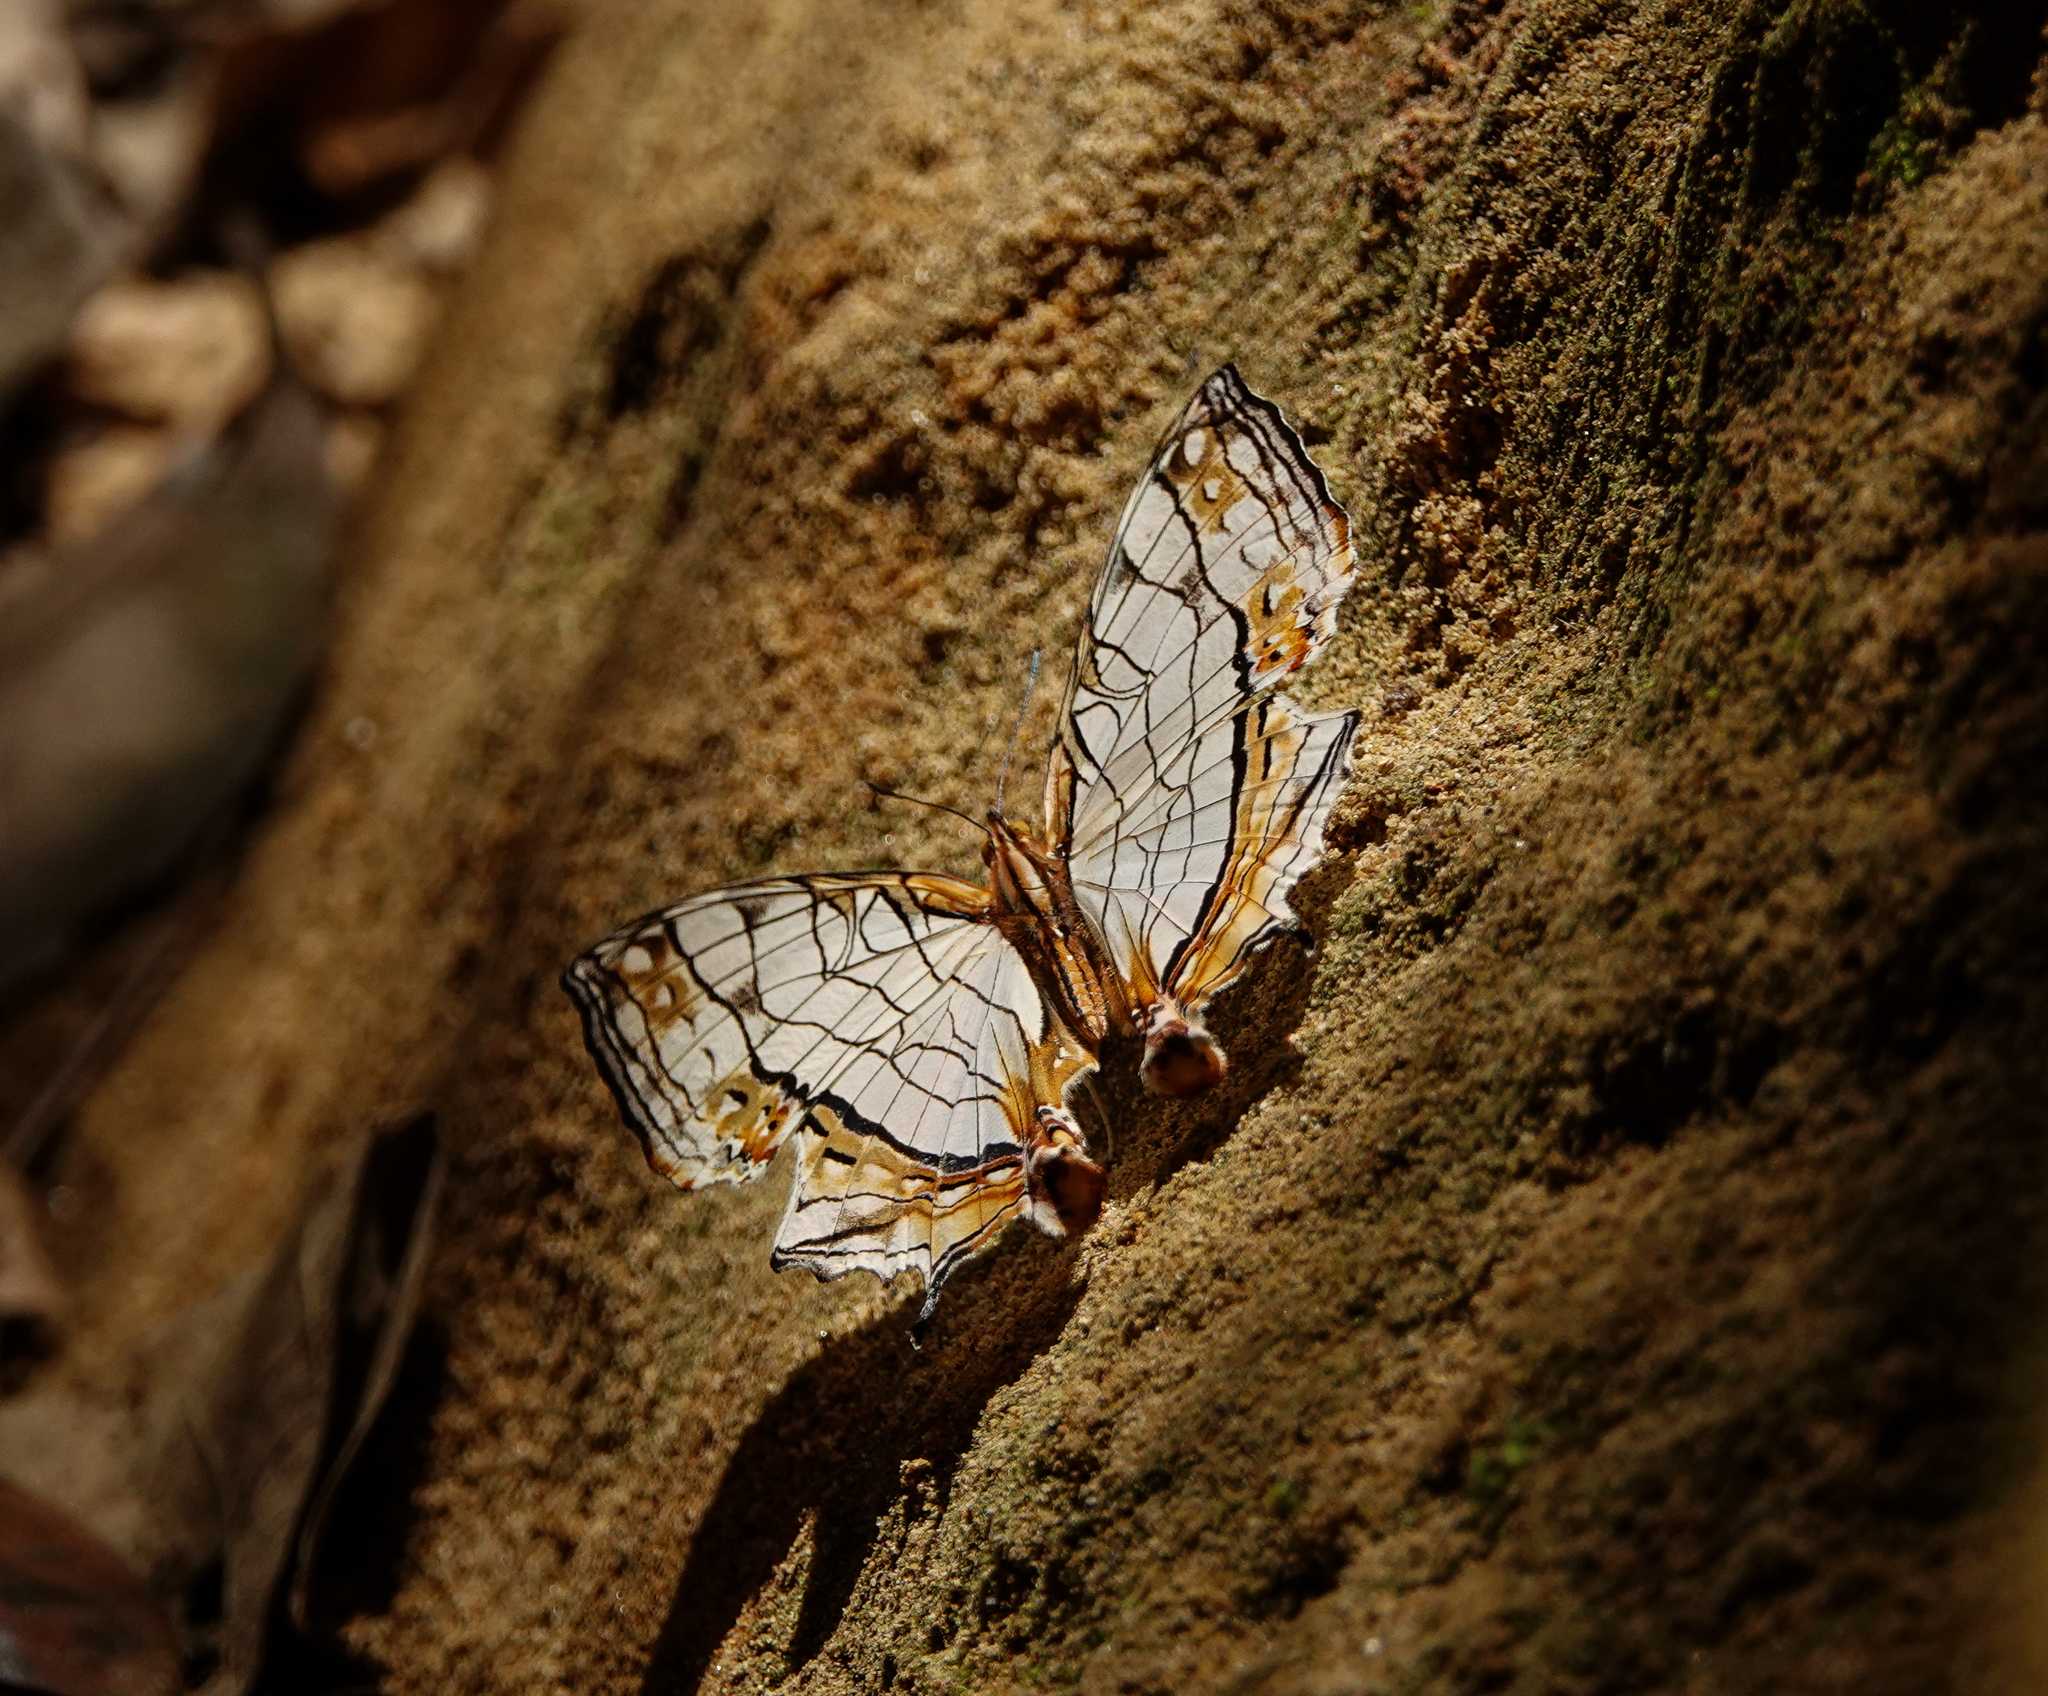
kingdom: Animalia
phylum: Arthropoda
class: Insecta
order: Lepidoptera
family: Nymphalidae
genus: Cyrestis
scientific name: Cyrestis thyodamas
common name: Common mapwing
